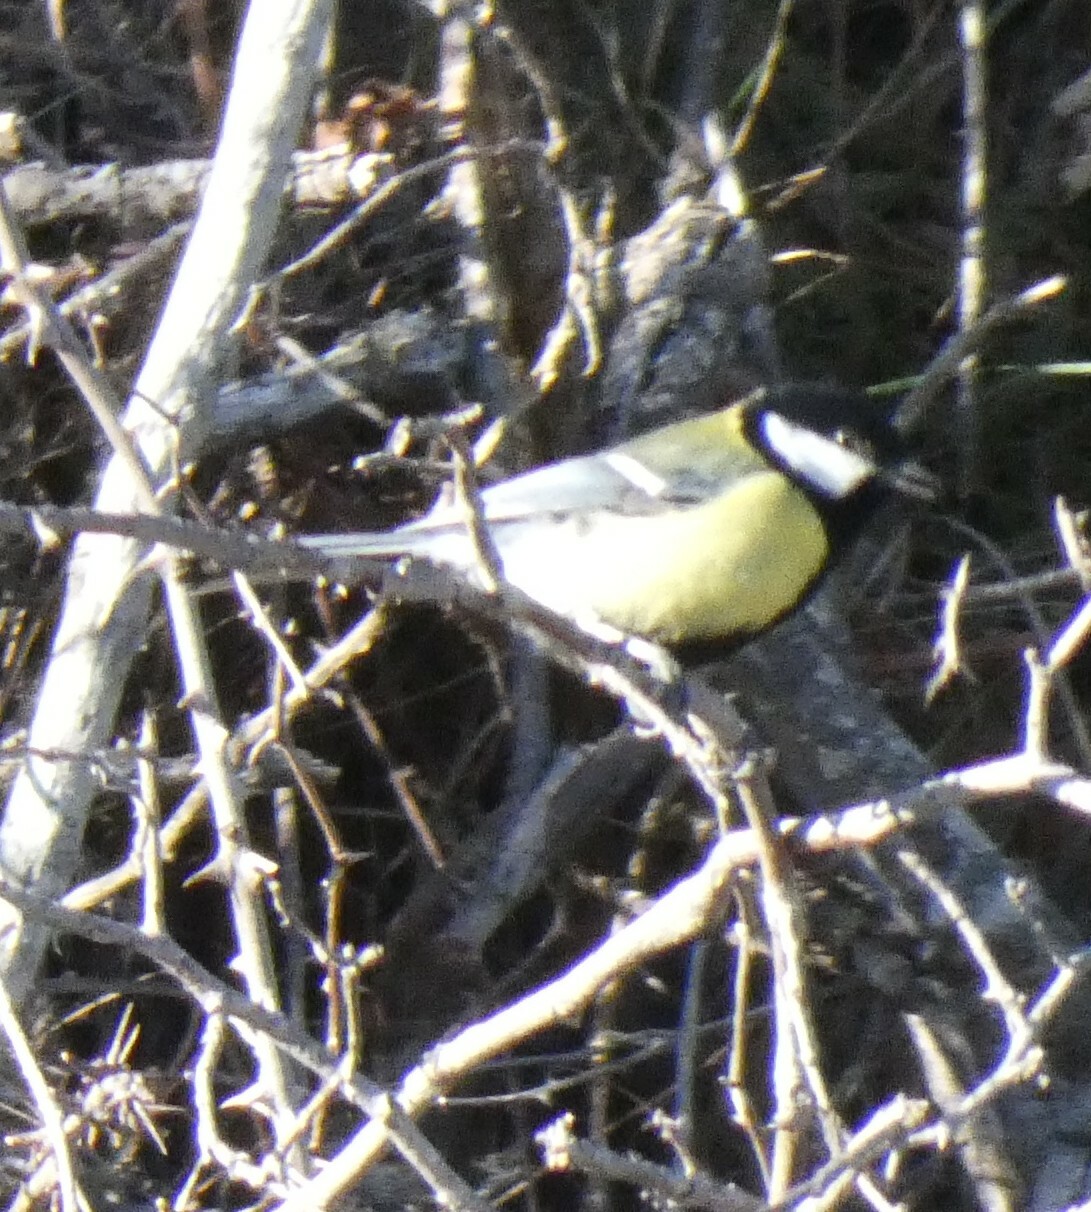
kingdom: Animalia
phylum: Chordata
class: Aves
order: Passeriformes
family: Paridae
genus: Parus
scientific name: Parus major
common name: Great tit
